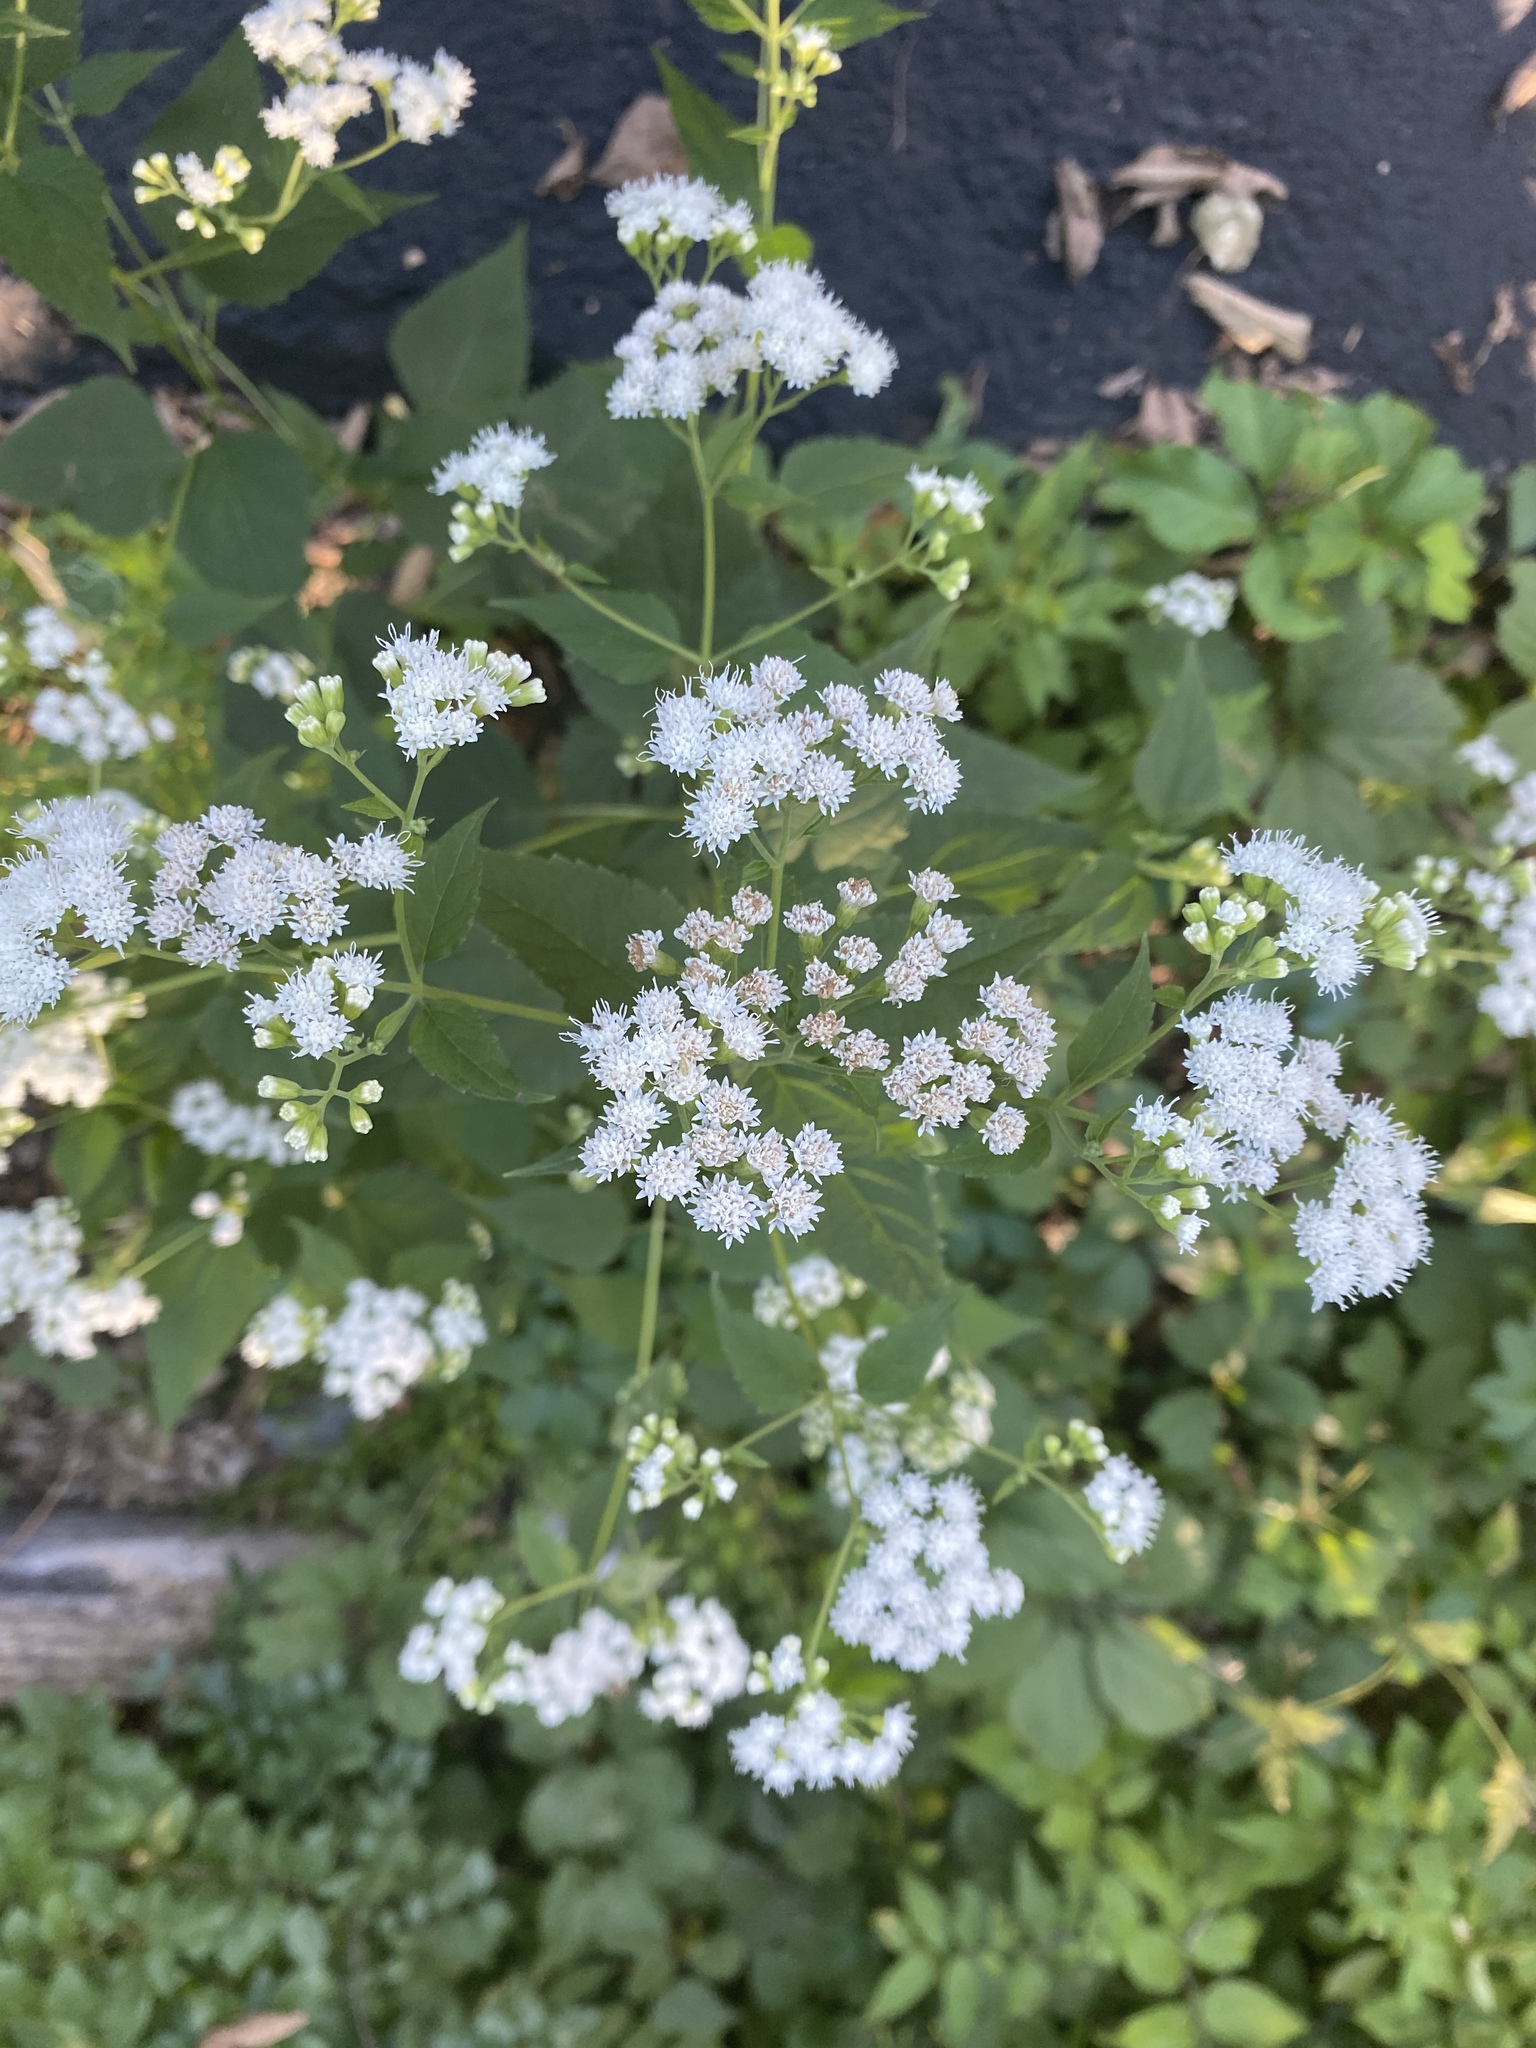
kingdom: Plantae
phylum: Tracheophyta
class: Magnoliopsida
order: Asterales
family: Asteraceae
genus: Ageratina
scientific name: Ageratina altissima
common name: White snakeroot
